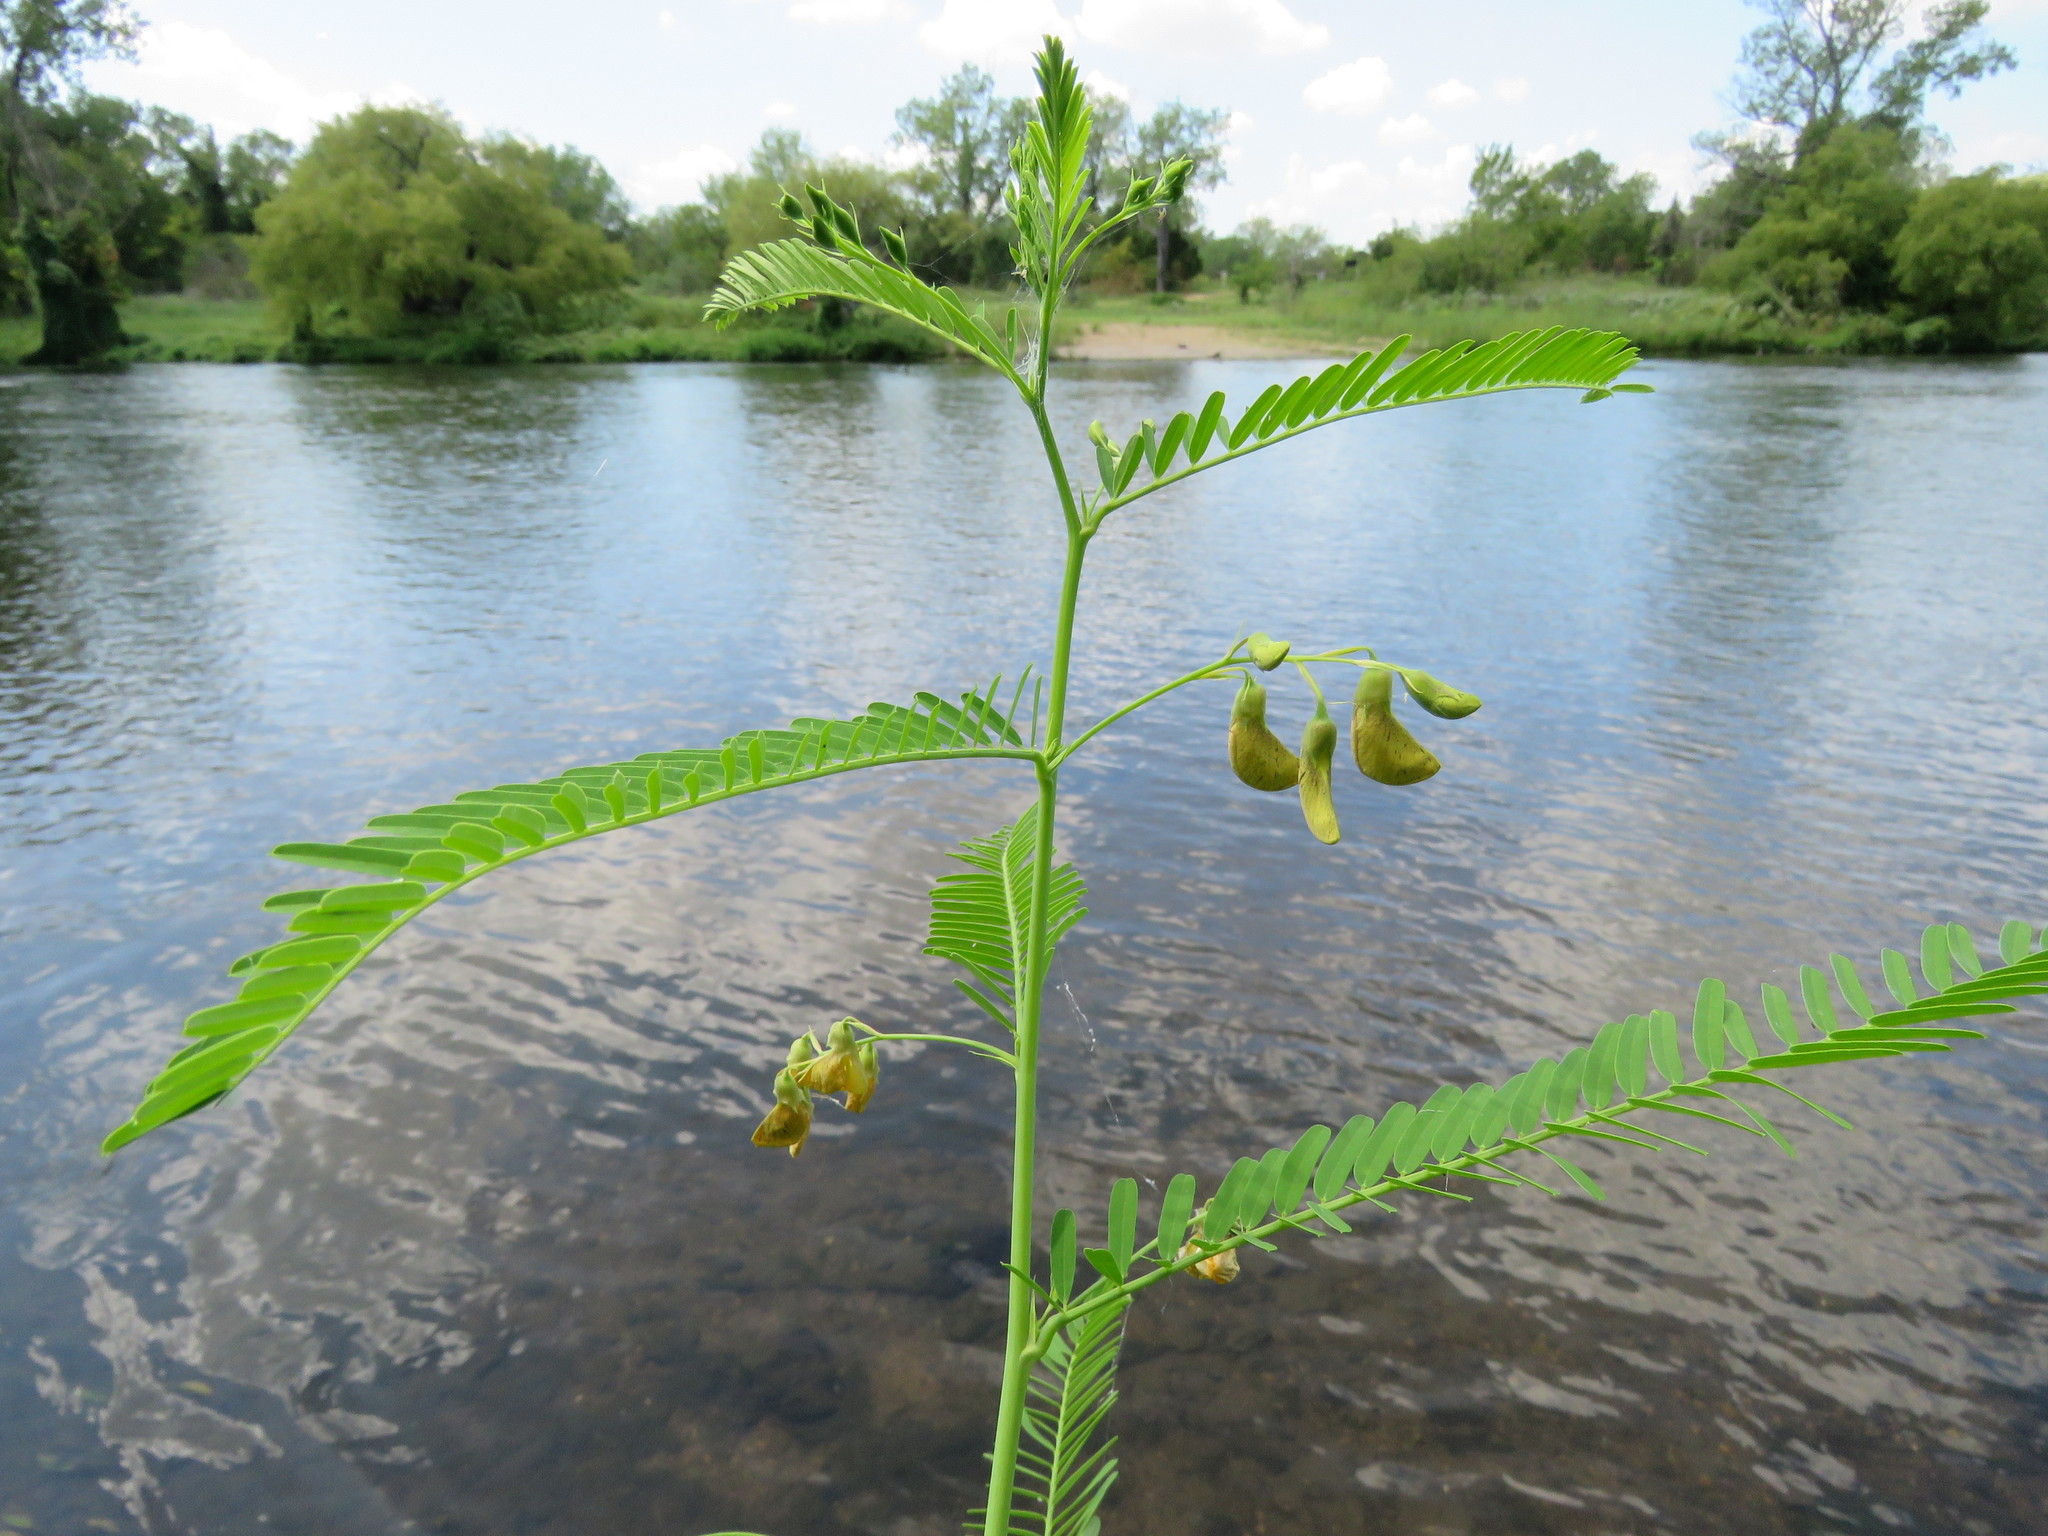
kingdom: Plantae
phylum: Tracheophyta
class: Magnoliopsida
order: Fabales
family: Fabaceae
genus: Sesbania
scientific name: Sesbania herbacea
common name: Bigpod sesbania
